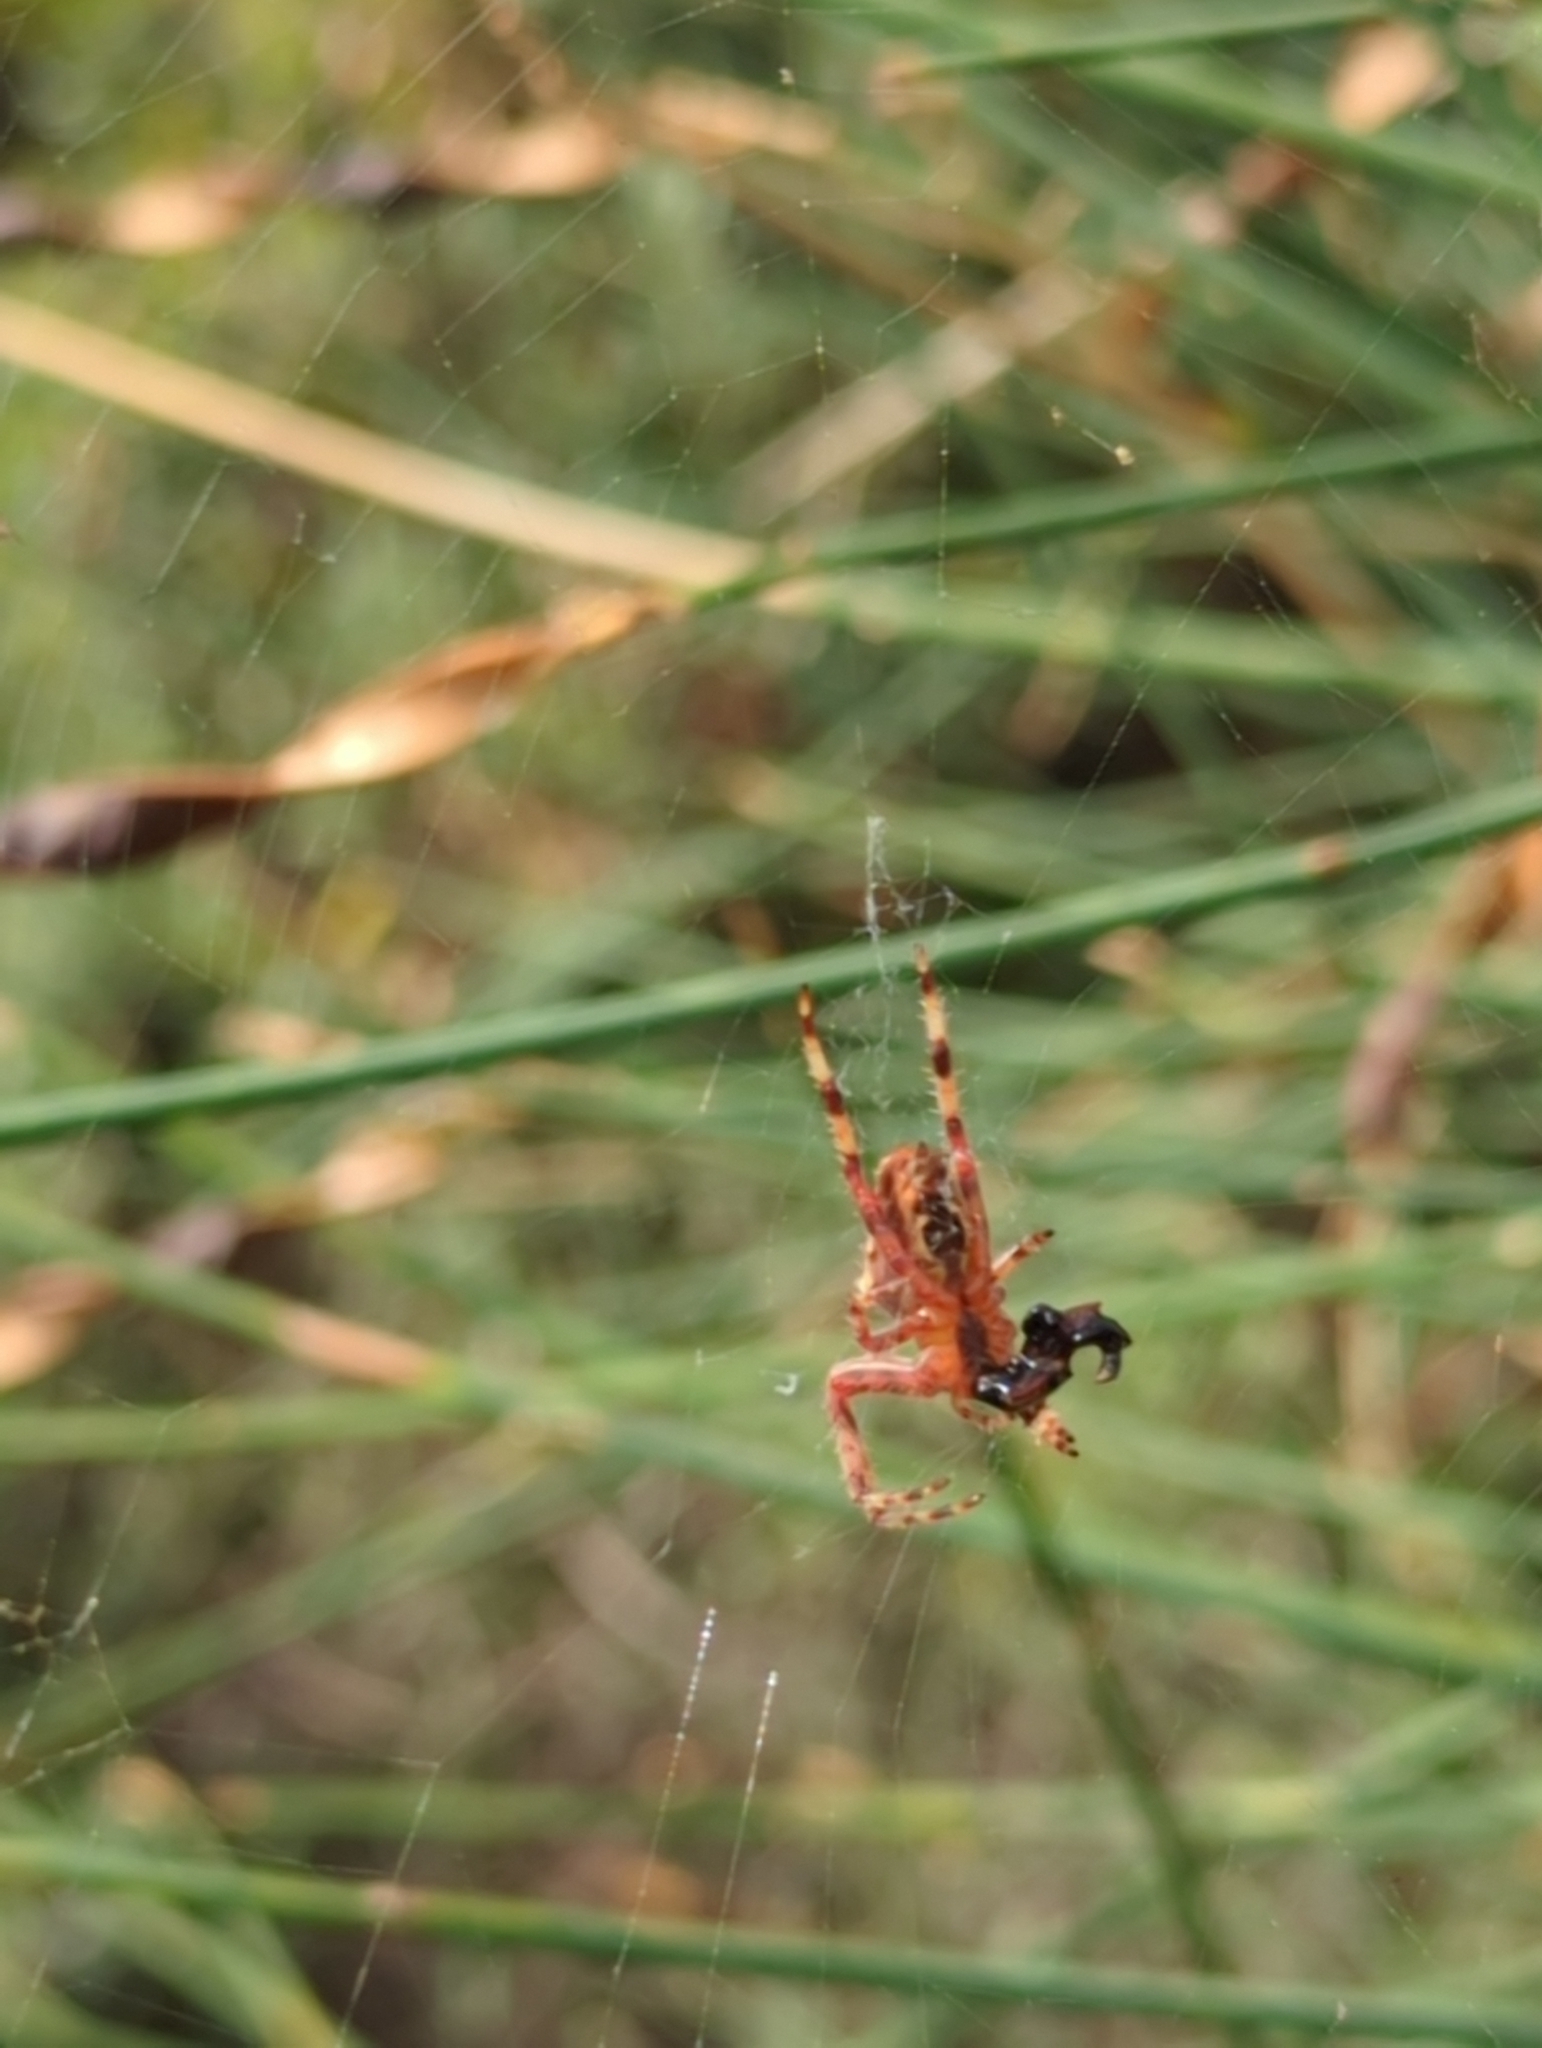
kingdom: Animalia
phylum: Arthropoda
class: Arachnida
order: Araneae
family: Araneidae
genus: Araneus
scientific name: Araneus diadematus
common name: Cross orbweaver
